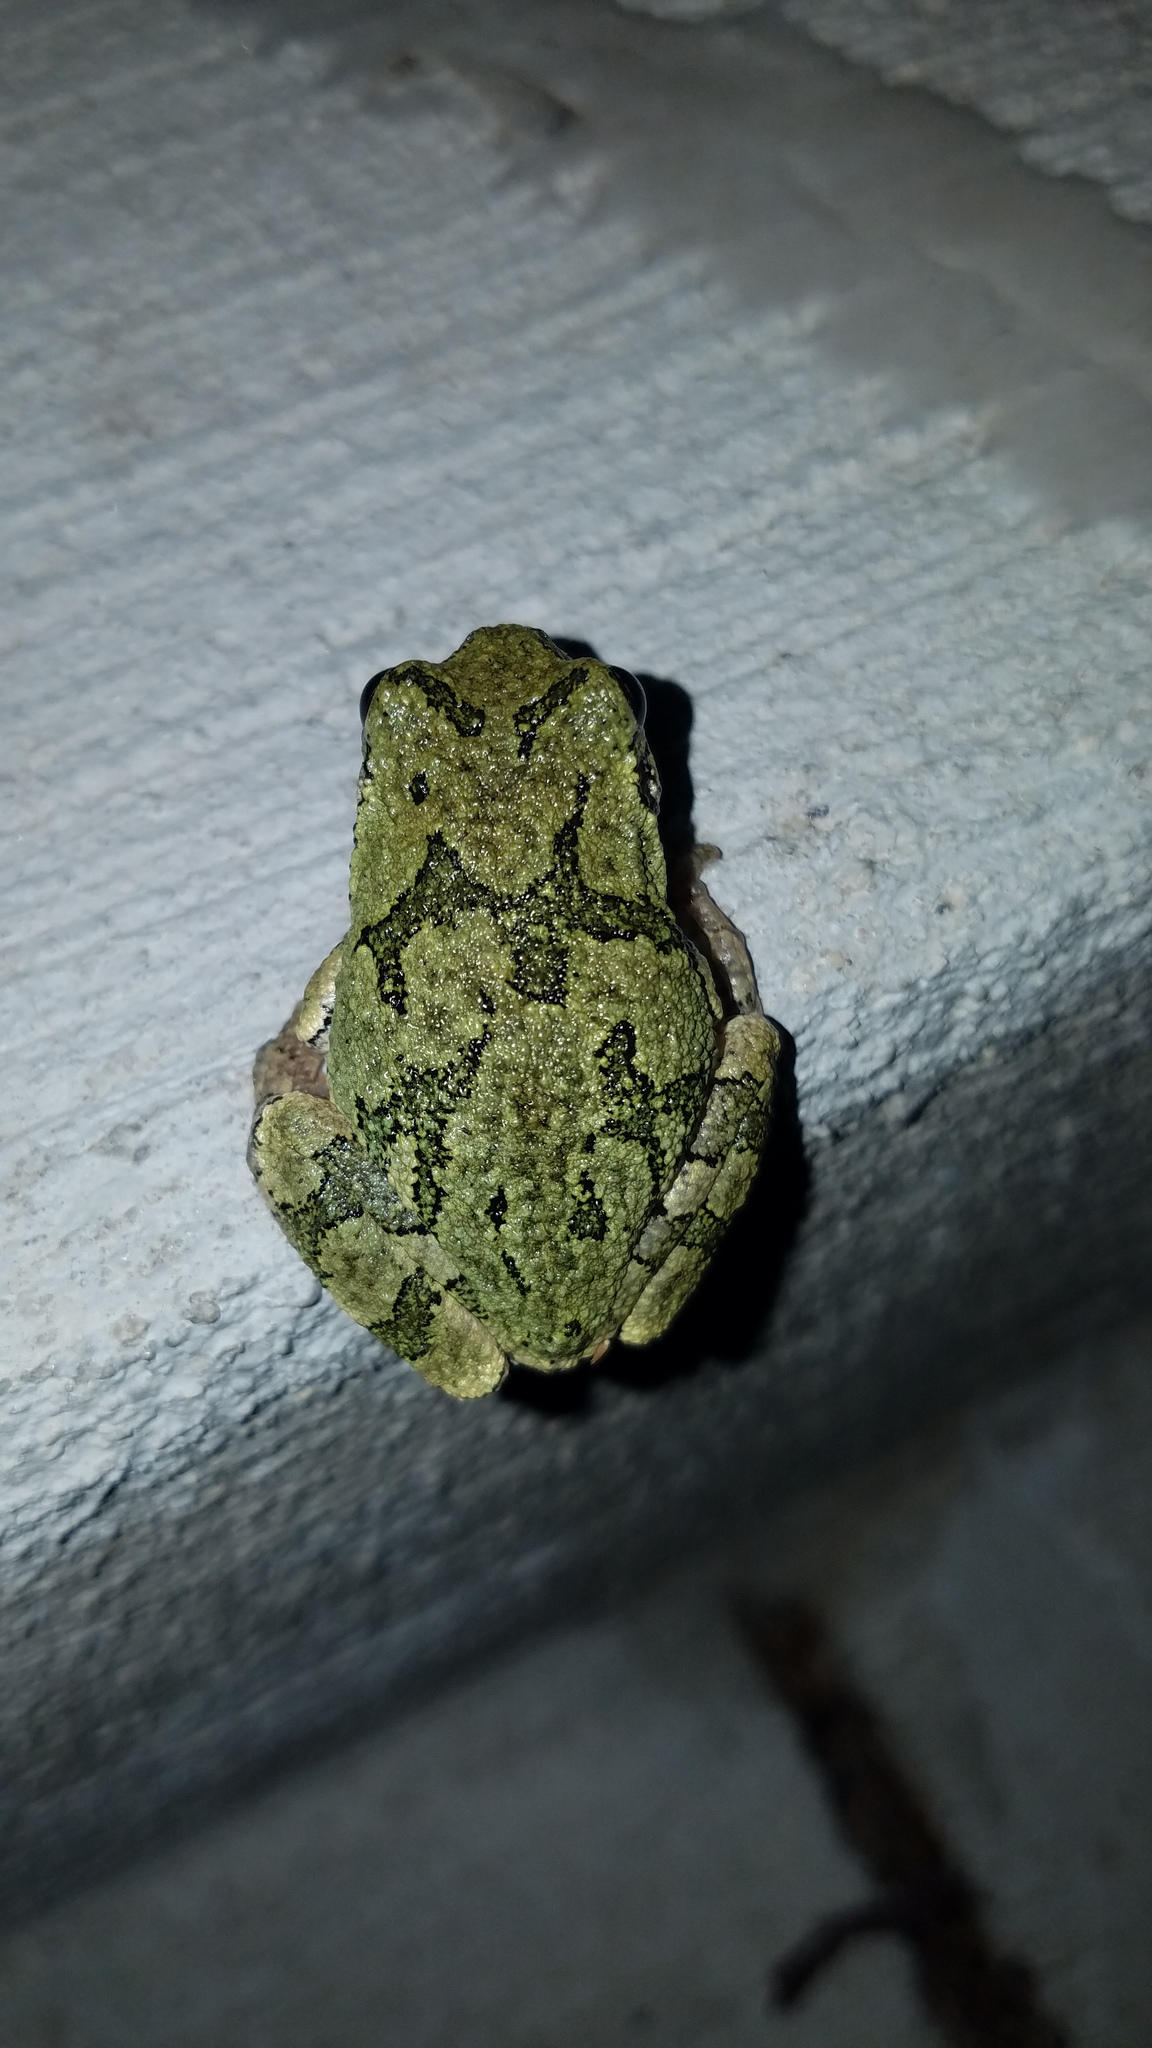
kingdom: Animalia
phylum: Chordata
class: Amphibia
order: Anura
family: Hylidae
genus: Hyla
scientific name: Hyla
